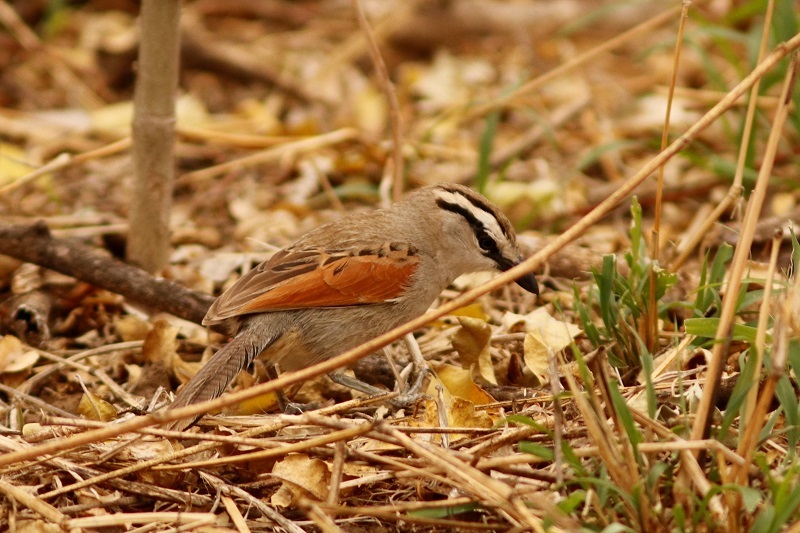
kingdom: Animalia
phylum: Chordata
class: Aves
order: Passeriformes
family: Malaconotidae
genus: Tchagra
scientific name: Tchagra australis
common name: Brown-crowned tchagra
